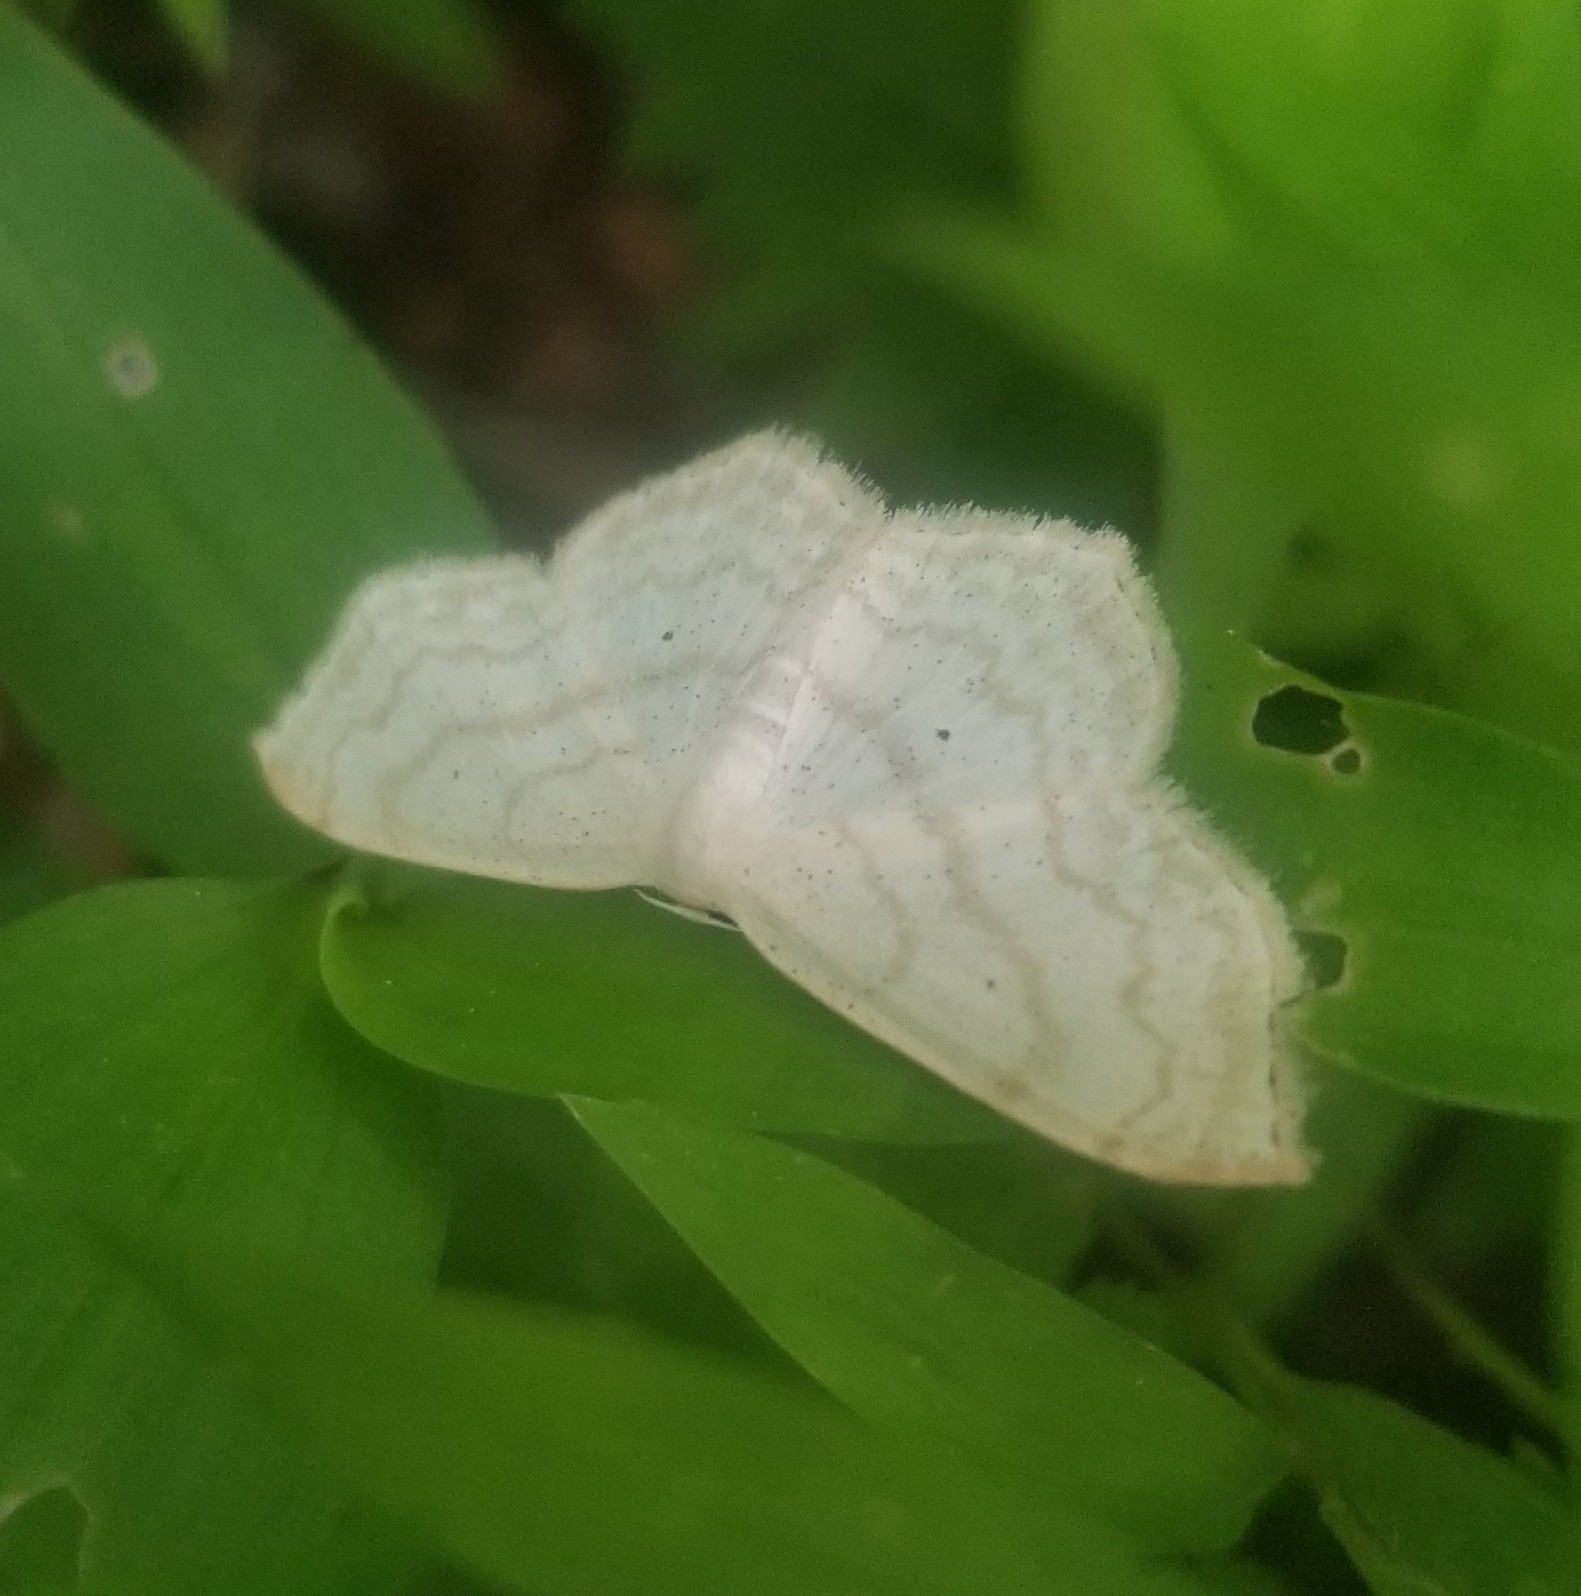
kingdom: Animalia
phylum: Arthropoda
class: Insecta
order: Lepidoptera
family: Geometridae
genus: Scopula
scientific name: Scopula limboundata
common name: Large lace border
